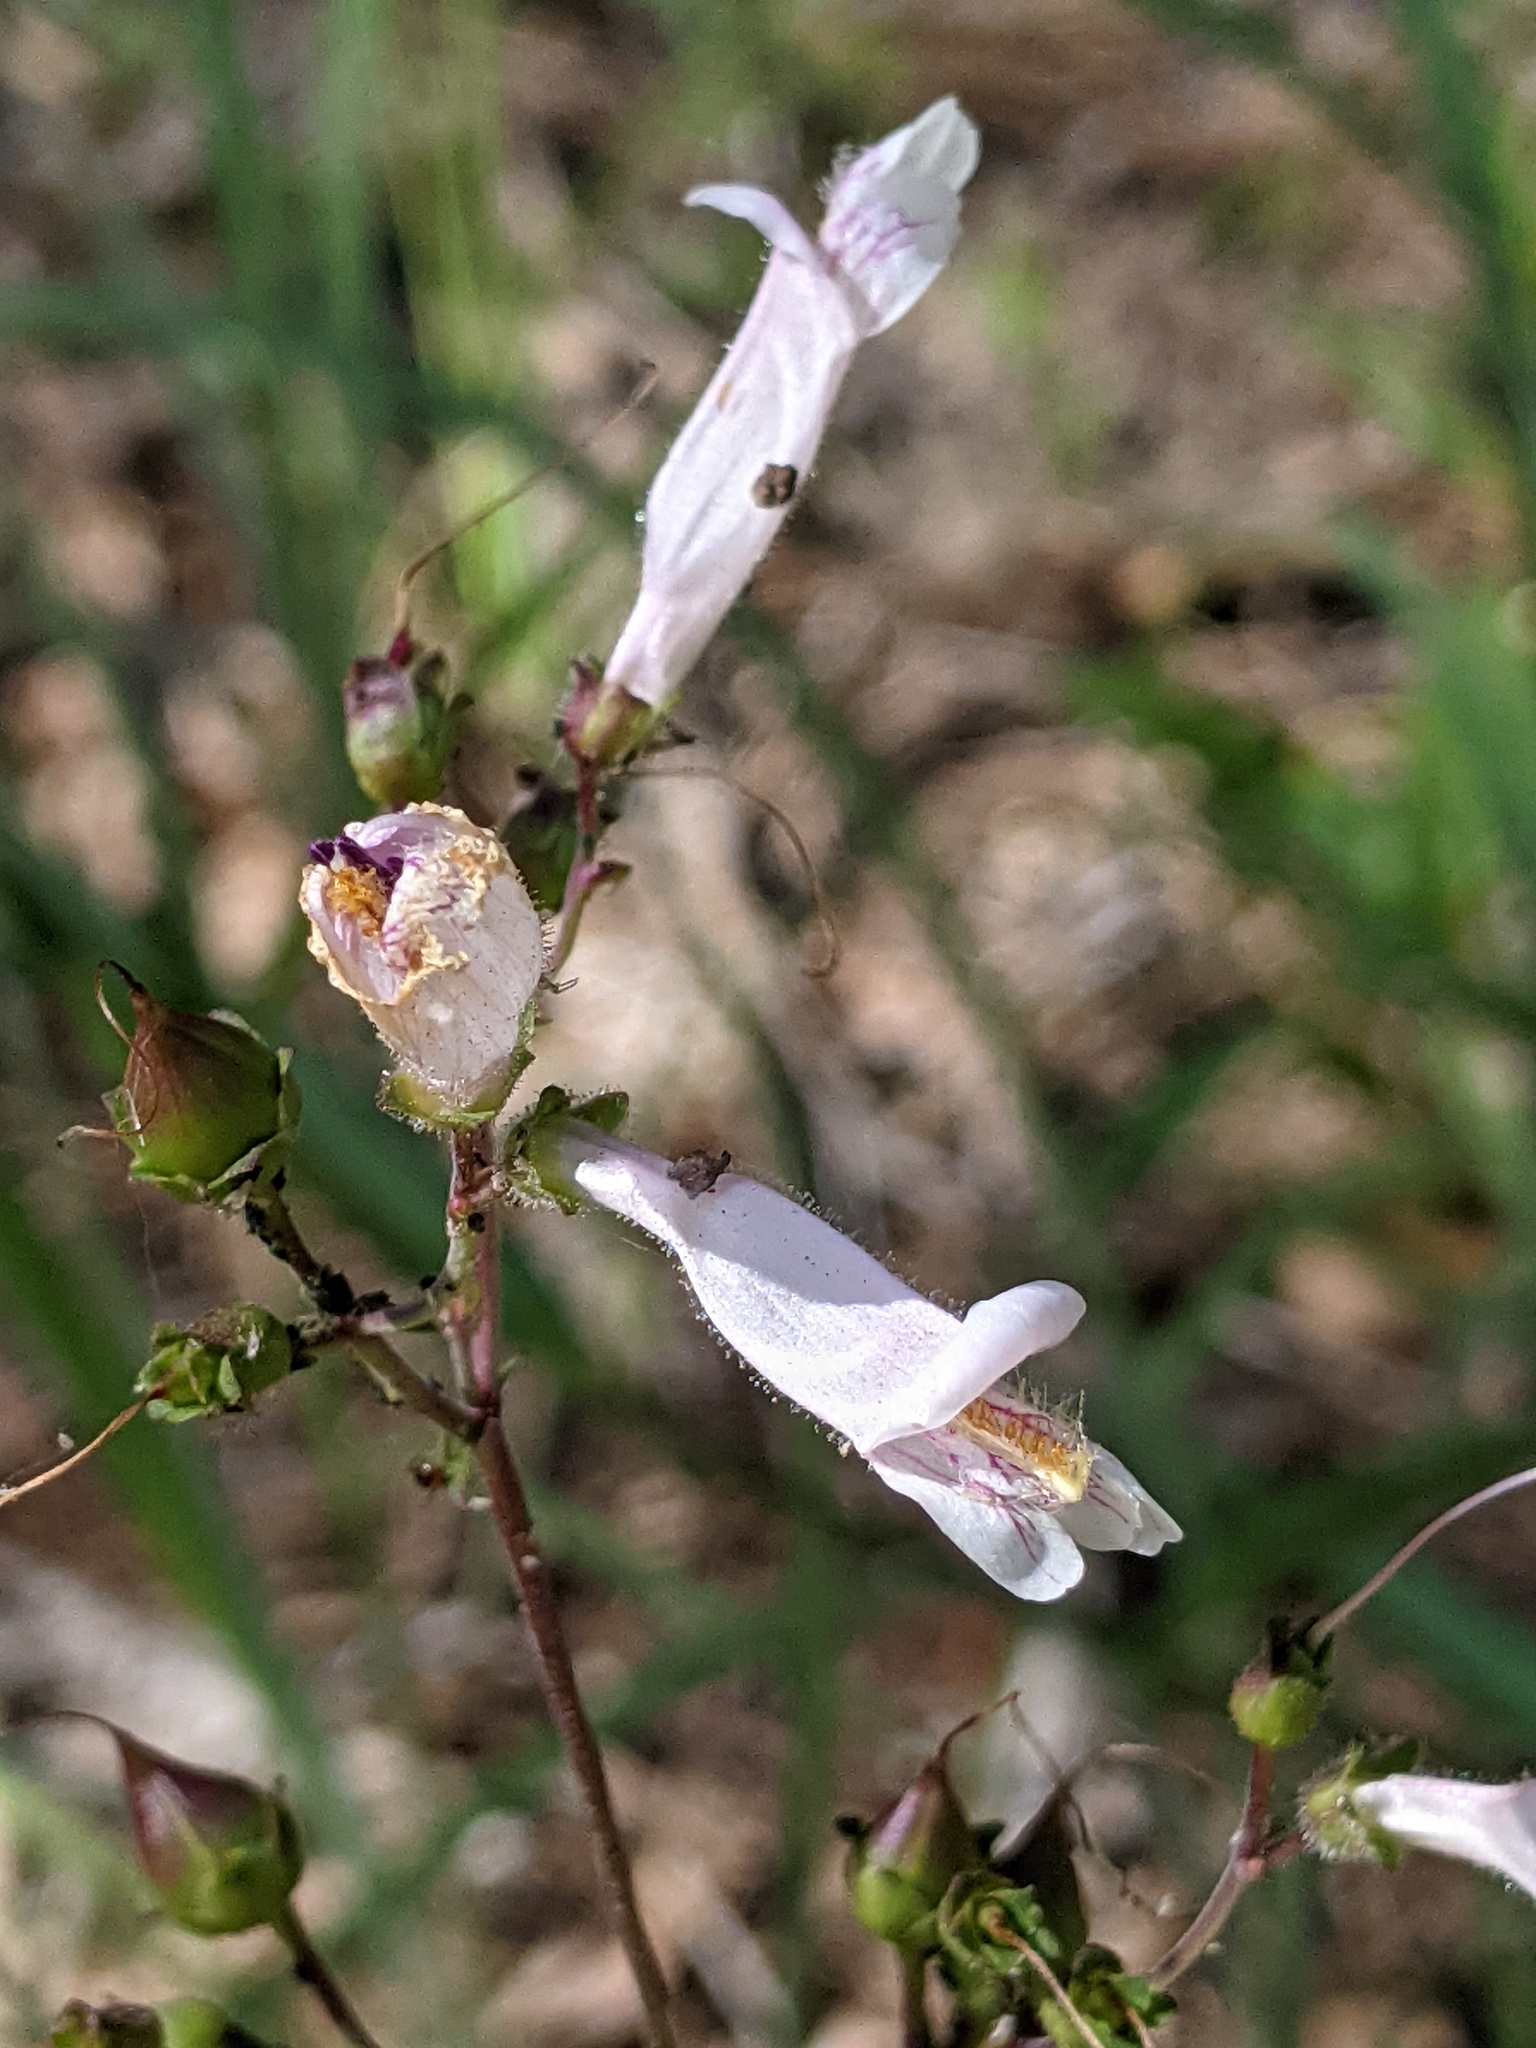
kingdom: Plantae
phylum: Tracheophyta
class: Magnoliopsida
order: Lamiales
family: Plantaginaceae
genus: Penstemon
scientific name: Penstemon laxiflorus
